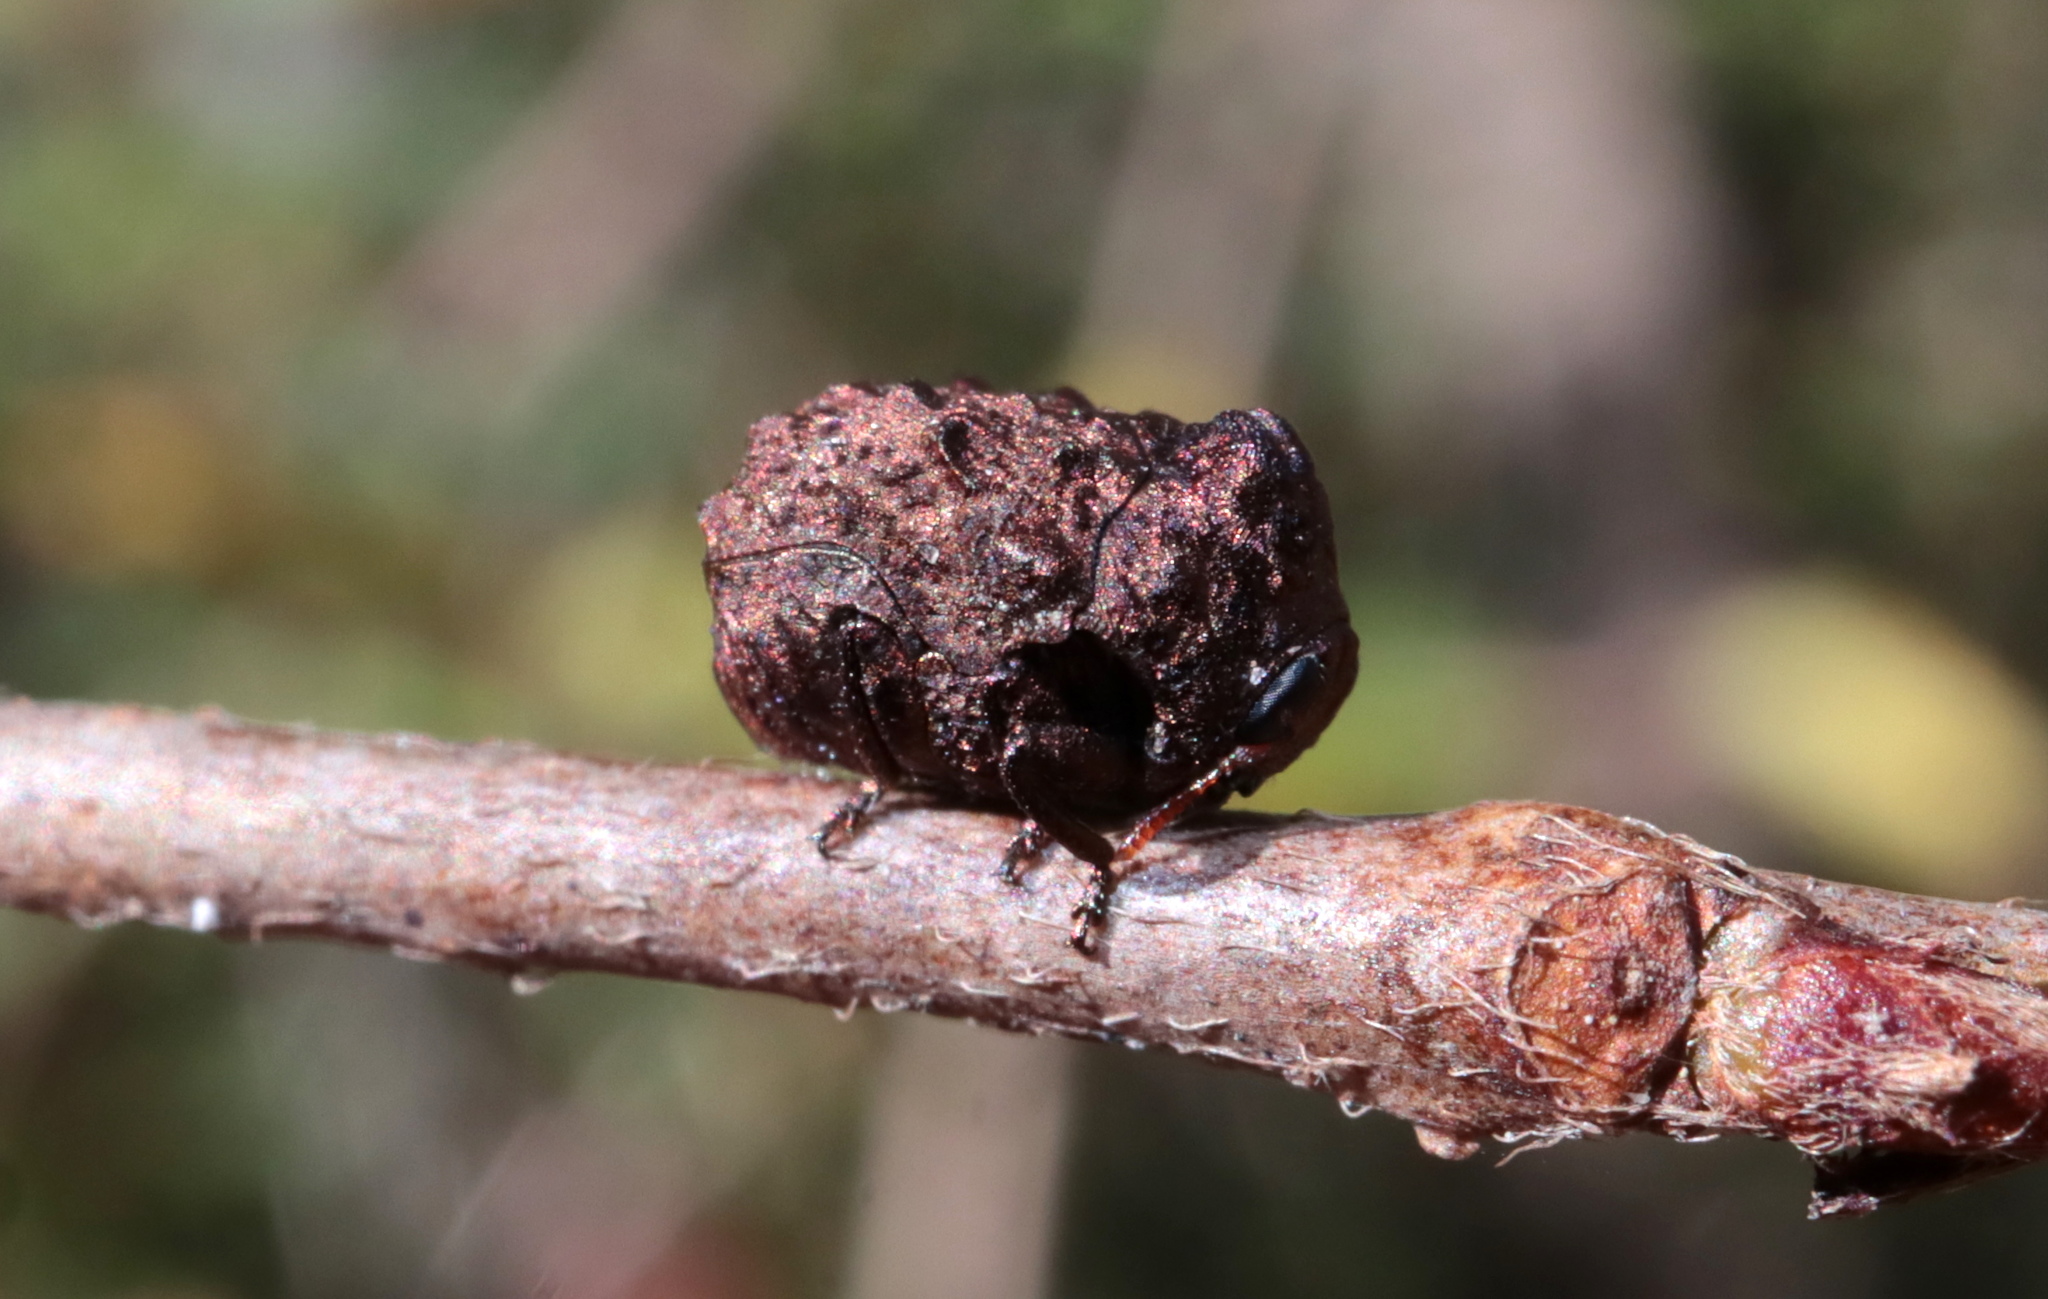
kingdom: Animalia
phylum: Arthropoda
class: Insecta
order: Coleoptera
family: Chrysomelidae
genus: Neochlamisus
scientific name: Neochlamisus
